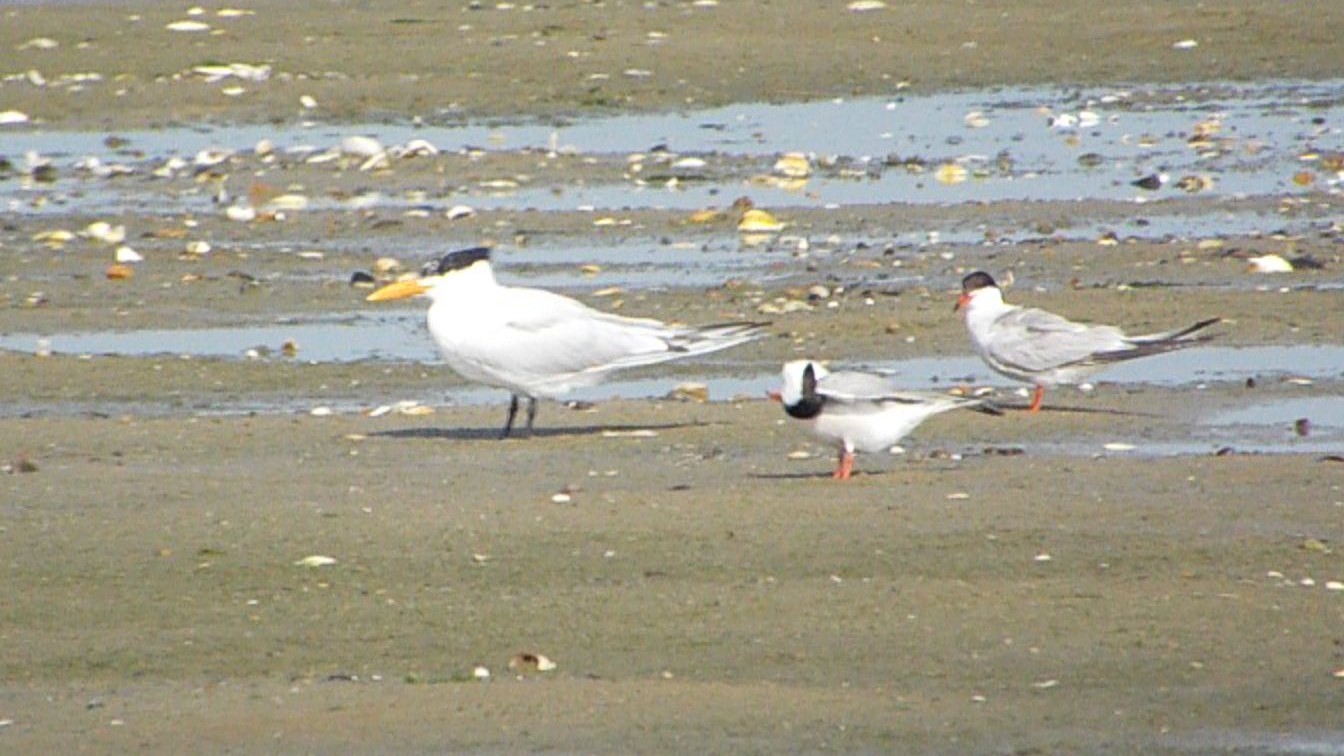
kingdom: Animalia
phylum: Chordata
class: Aves
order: Charadriiformes
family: Laridae
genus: Thalasseus
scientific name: Thalasseus maximus
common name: Royal tern
